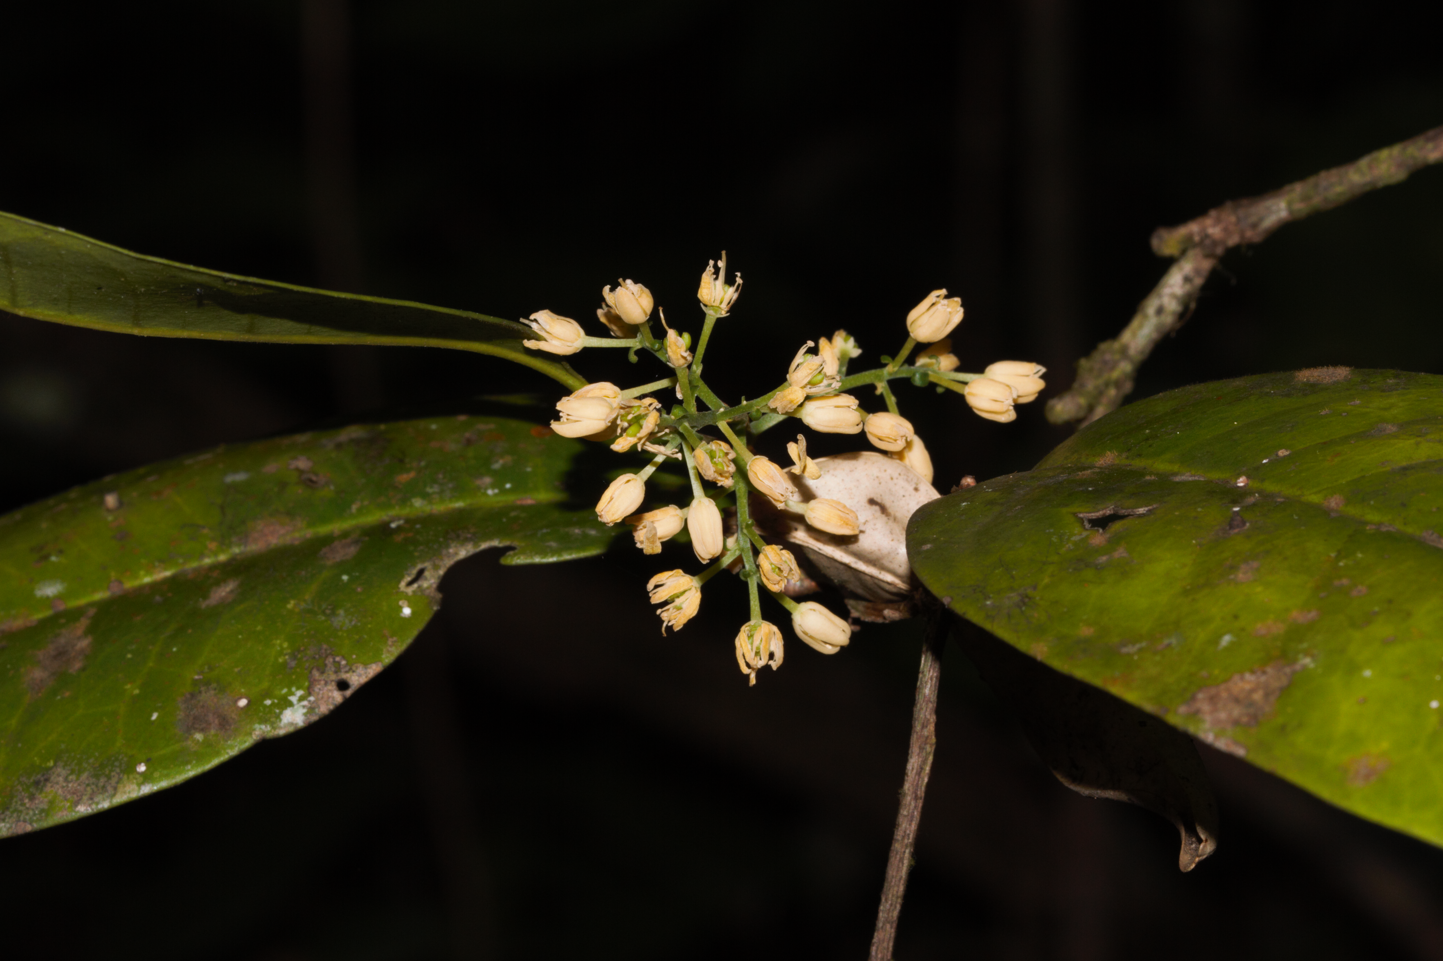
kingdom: Plantae
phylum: Tracheophyta
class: Magnoliopsida
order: Sapindales
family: Simaroubaceae
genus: Simaba
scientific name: Simaba guianensis
